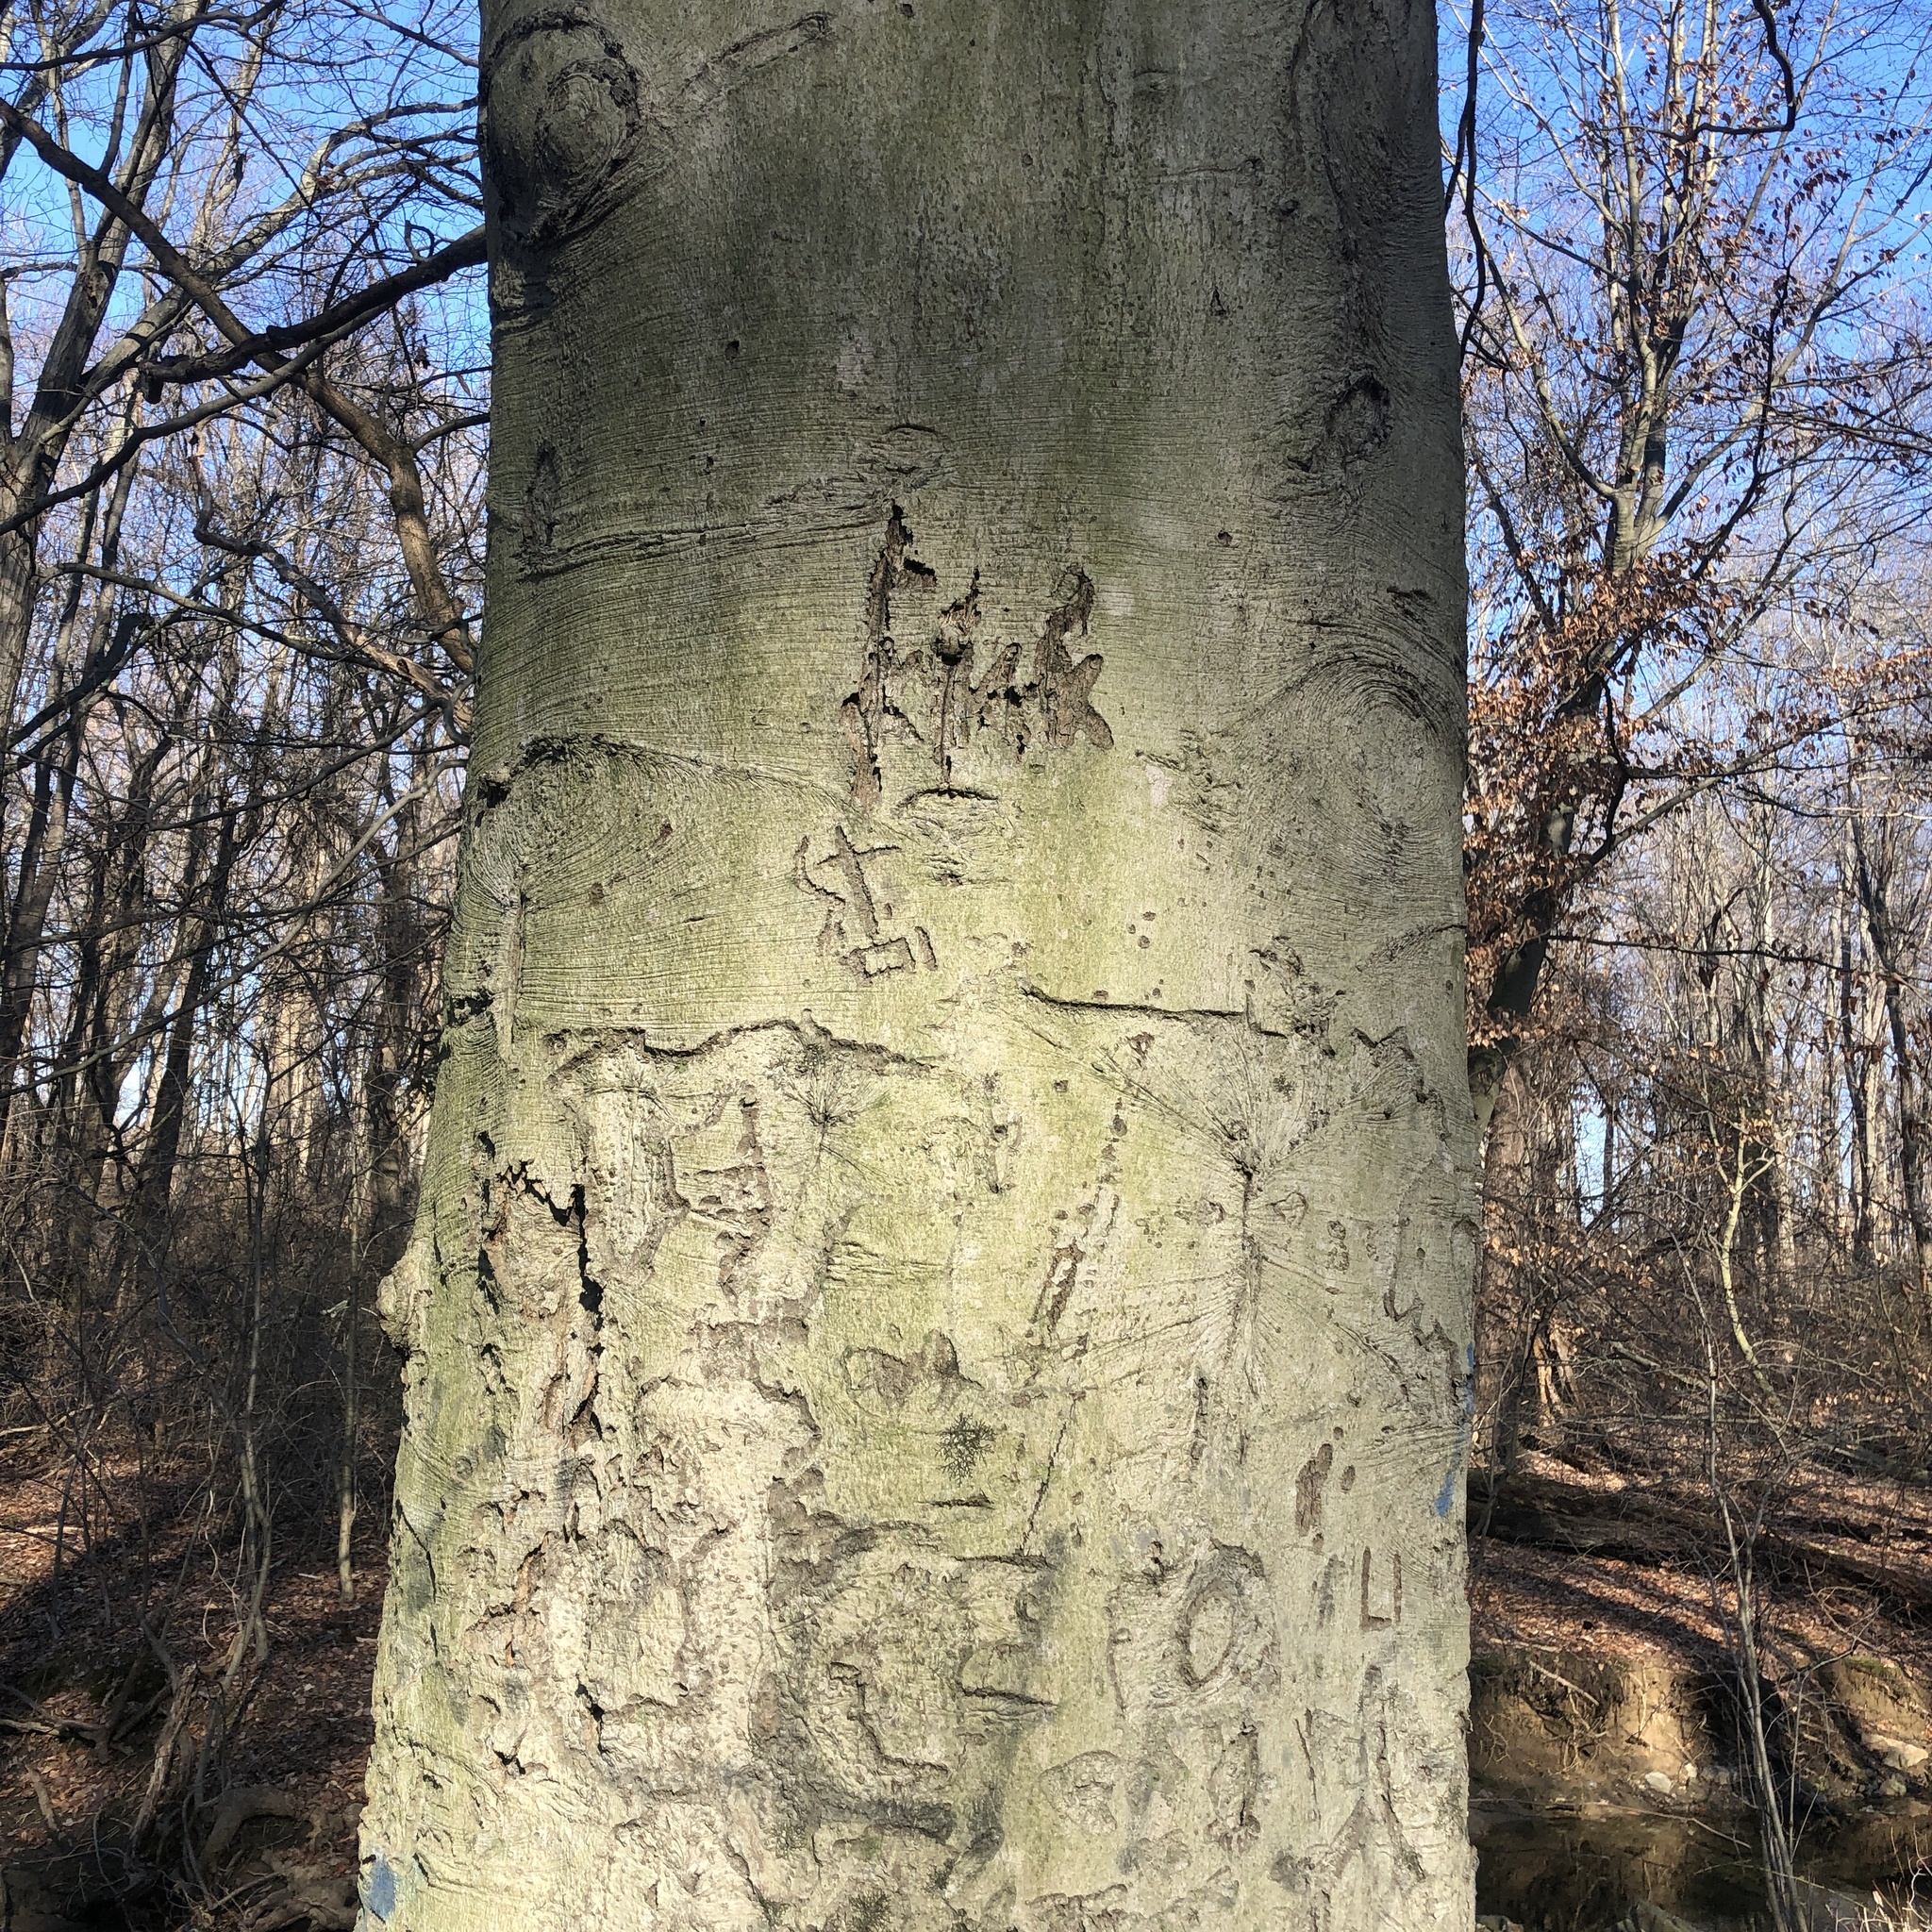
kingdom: Plantae
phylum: Tracheophyta
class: Magnoliopsida
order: Fagales
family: Fagaceae
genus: Fagus
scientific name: Fagus grandifolia
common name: American beech
